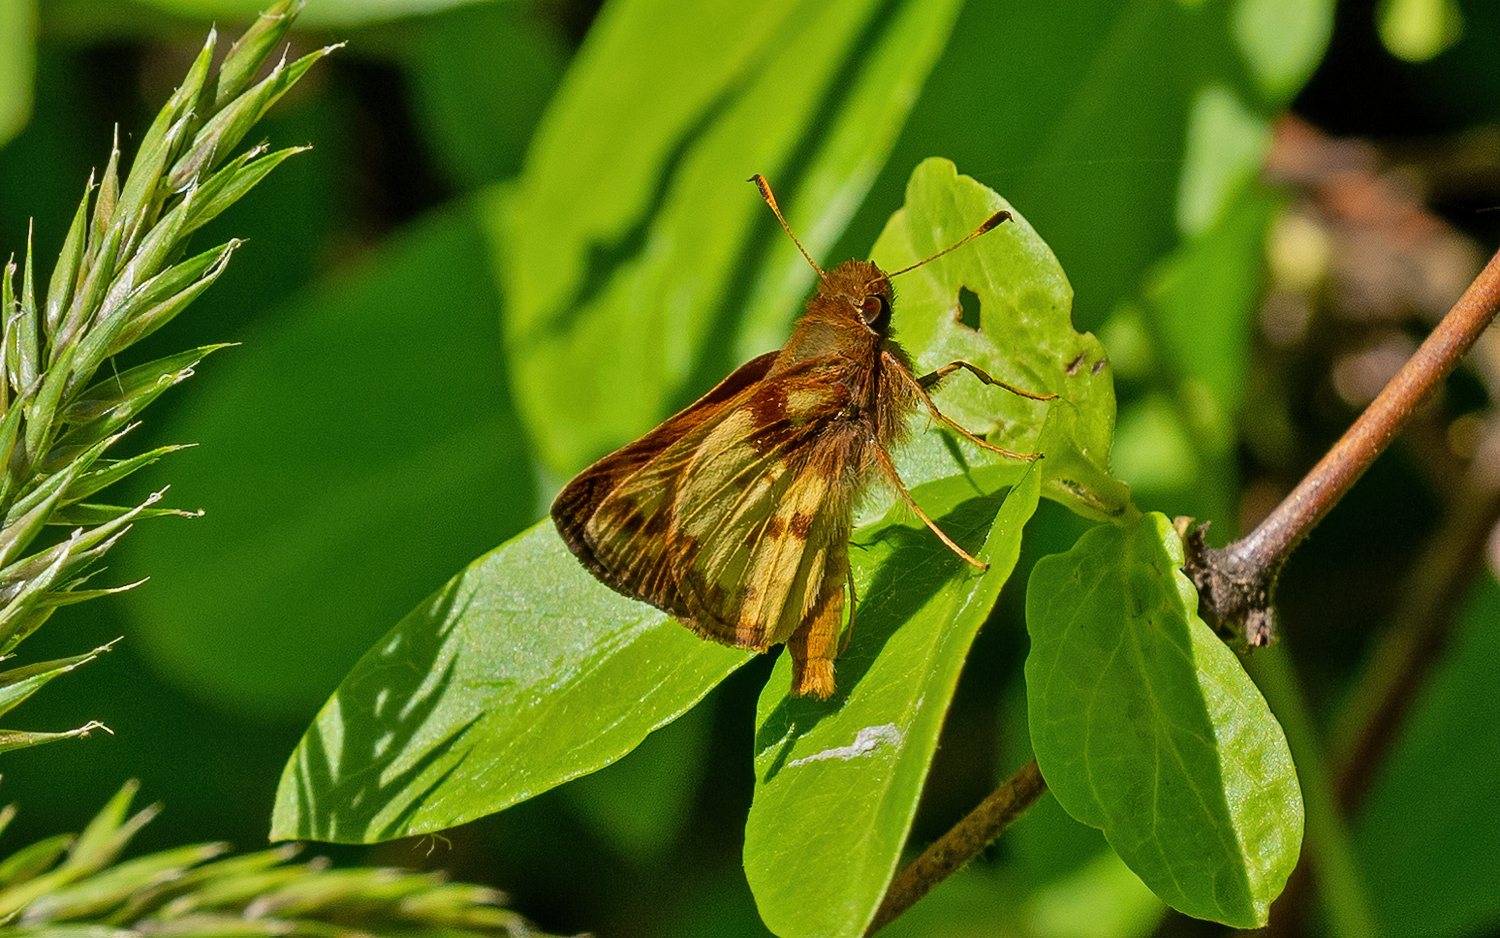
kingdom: Animalia
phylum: Arthropoda
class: Insecta
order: Lepidoptera
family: Hesperiidae
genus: Lon
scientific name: Lon zabulon
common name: Zabulon skipper
